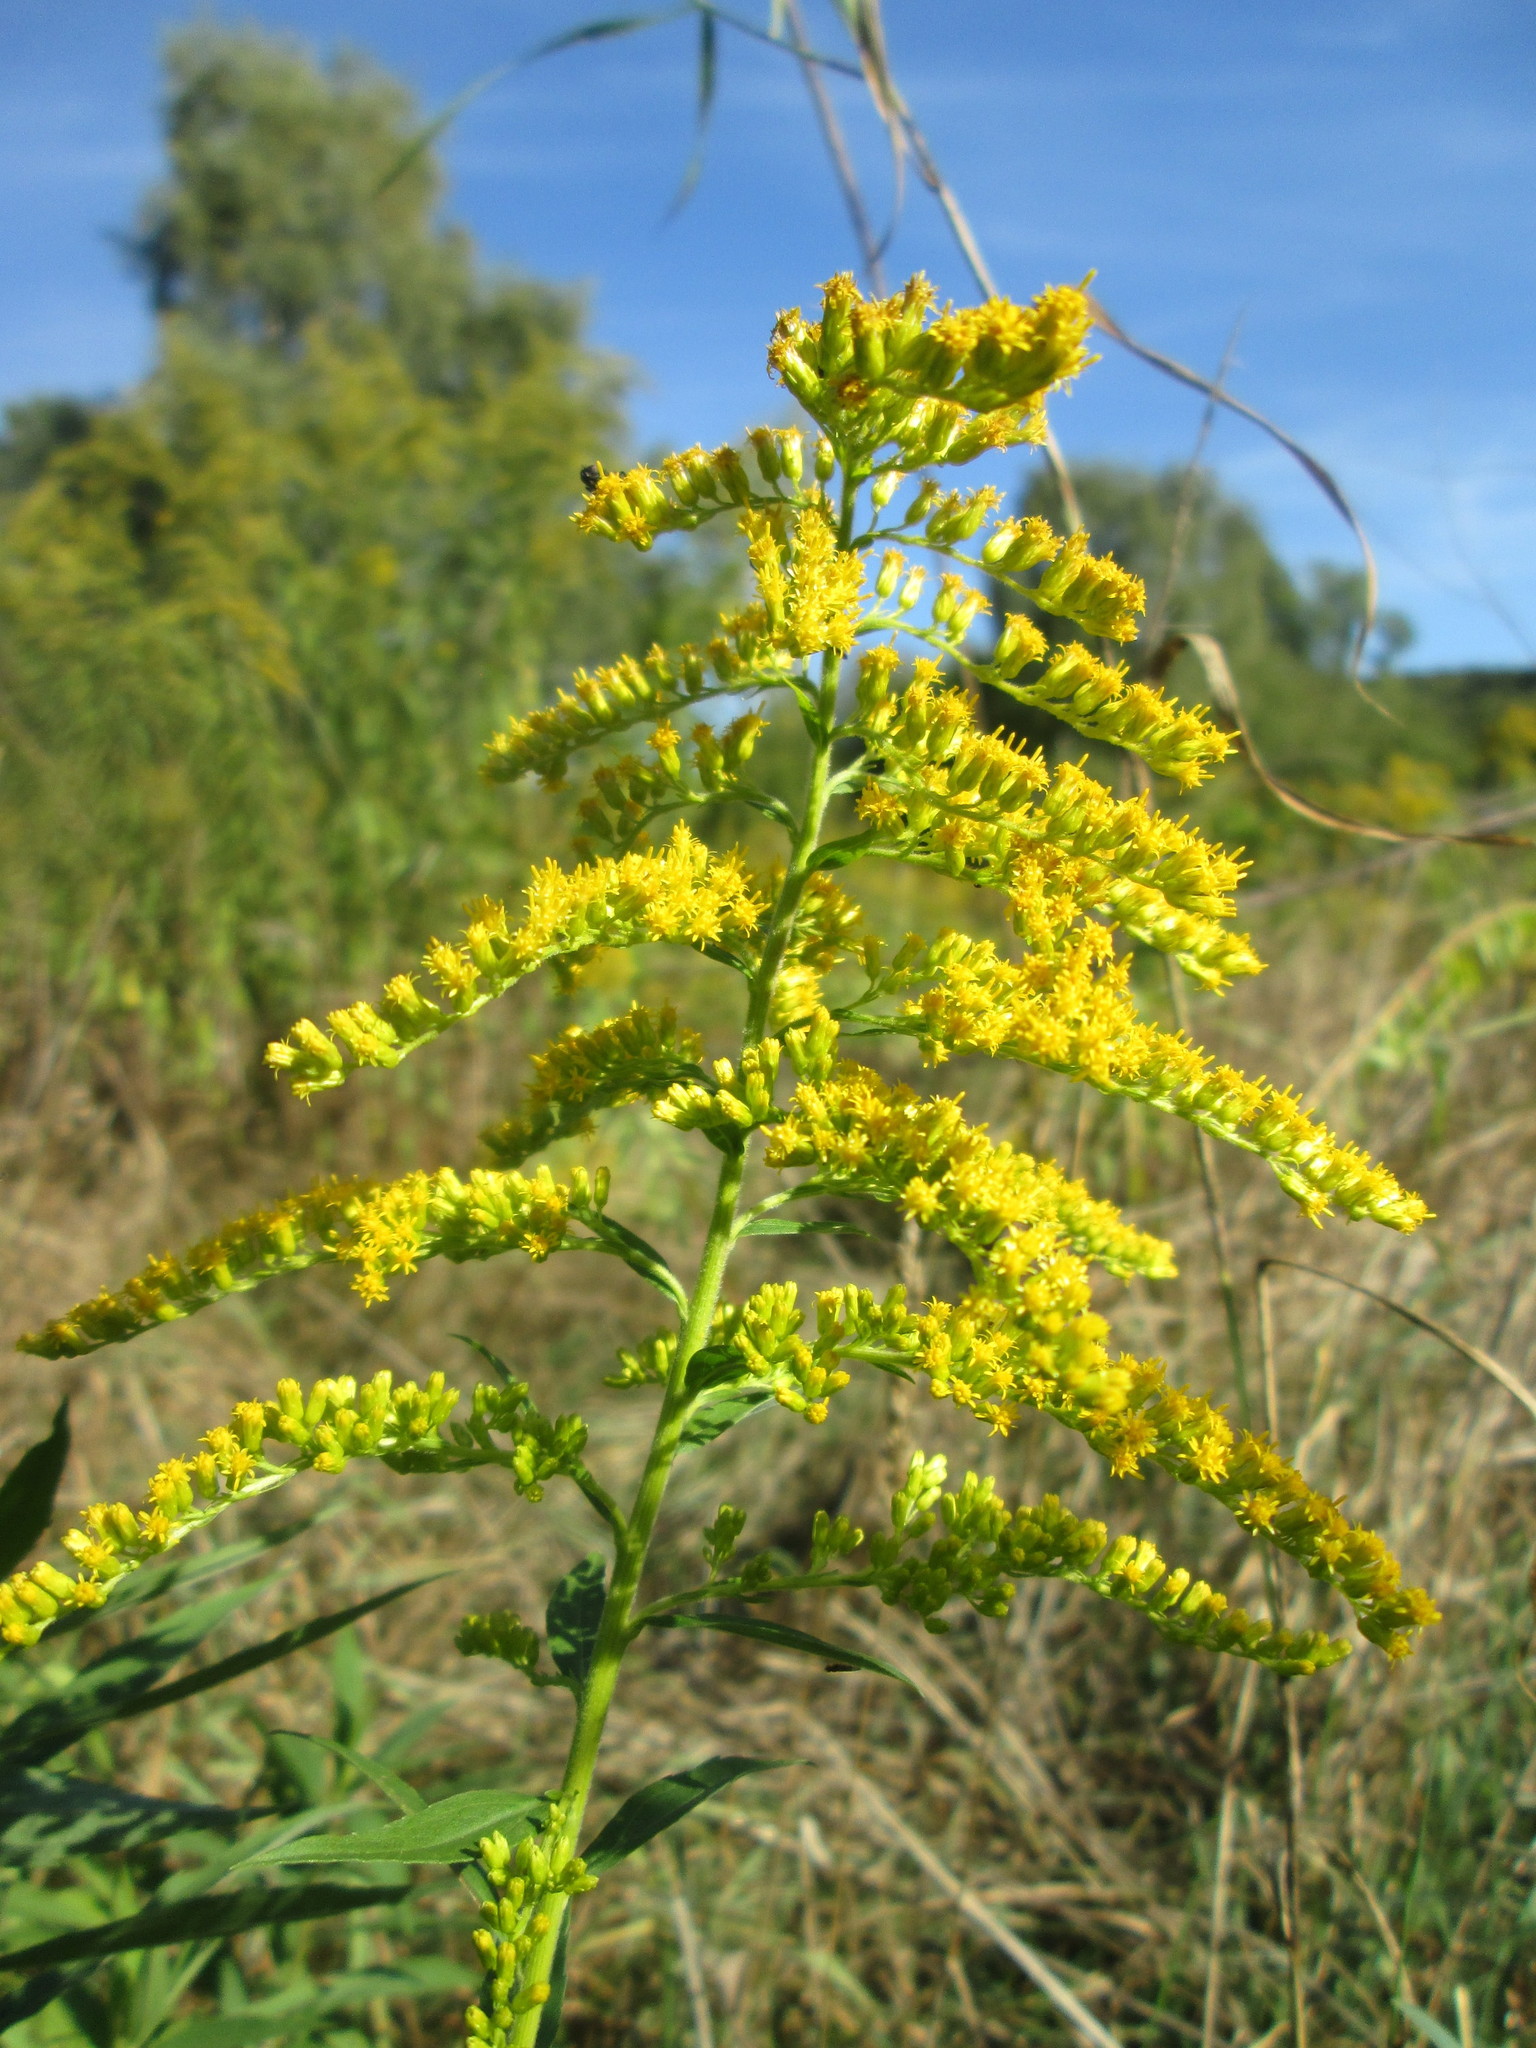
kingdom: Plantae
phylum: Tracheophyta
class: Magnoliopsida
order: Asterales
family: Asteraceae
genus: Solidago
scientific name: Solidago canadensis
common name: Canada goldenrod
